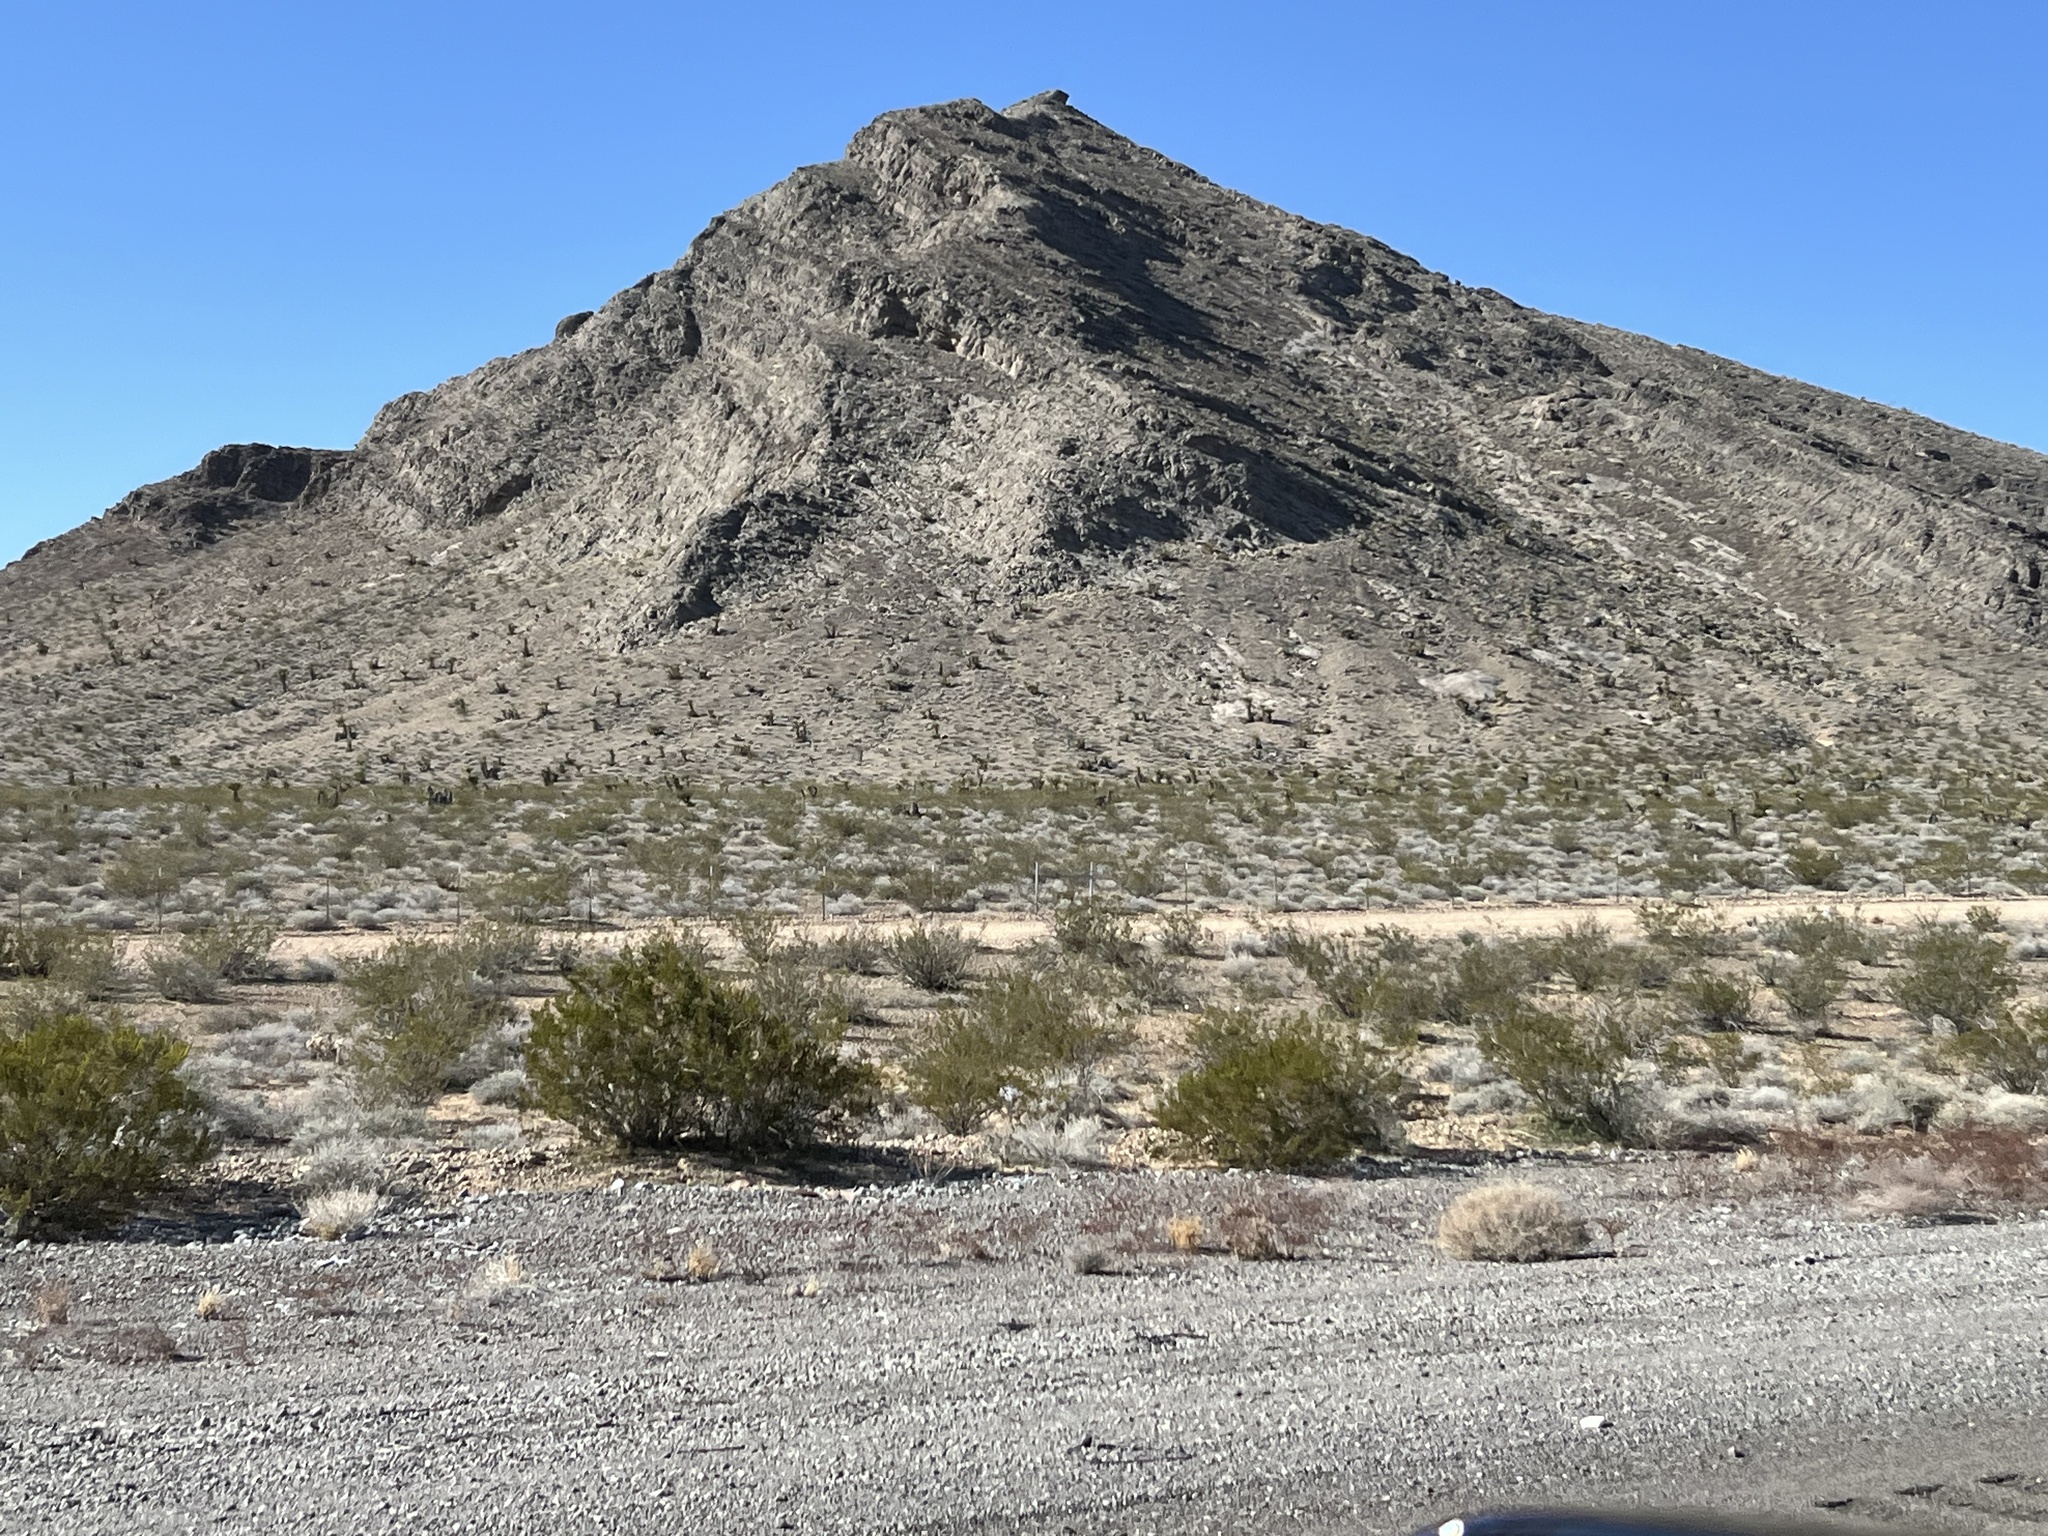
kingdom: Plantae
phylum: Tracheophyta
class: Magnoliopsida
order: Zygophyllales
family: Zygophyllaceae
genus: Larrea
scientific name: Larrea tridentata
